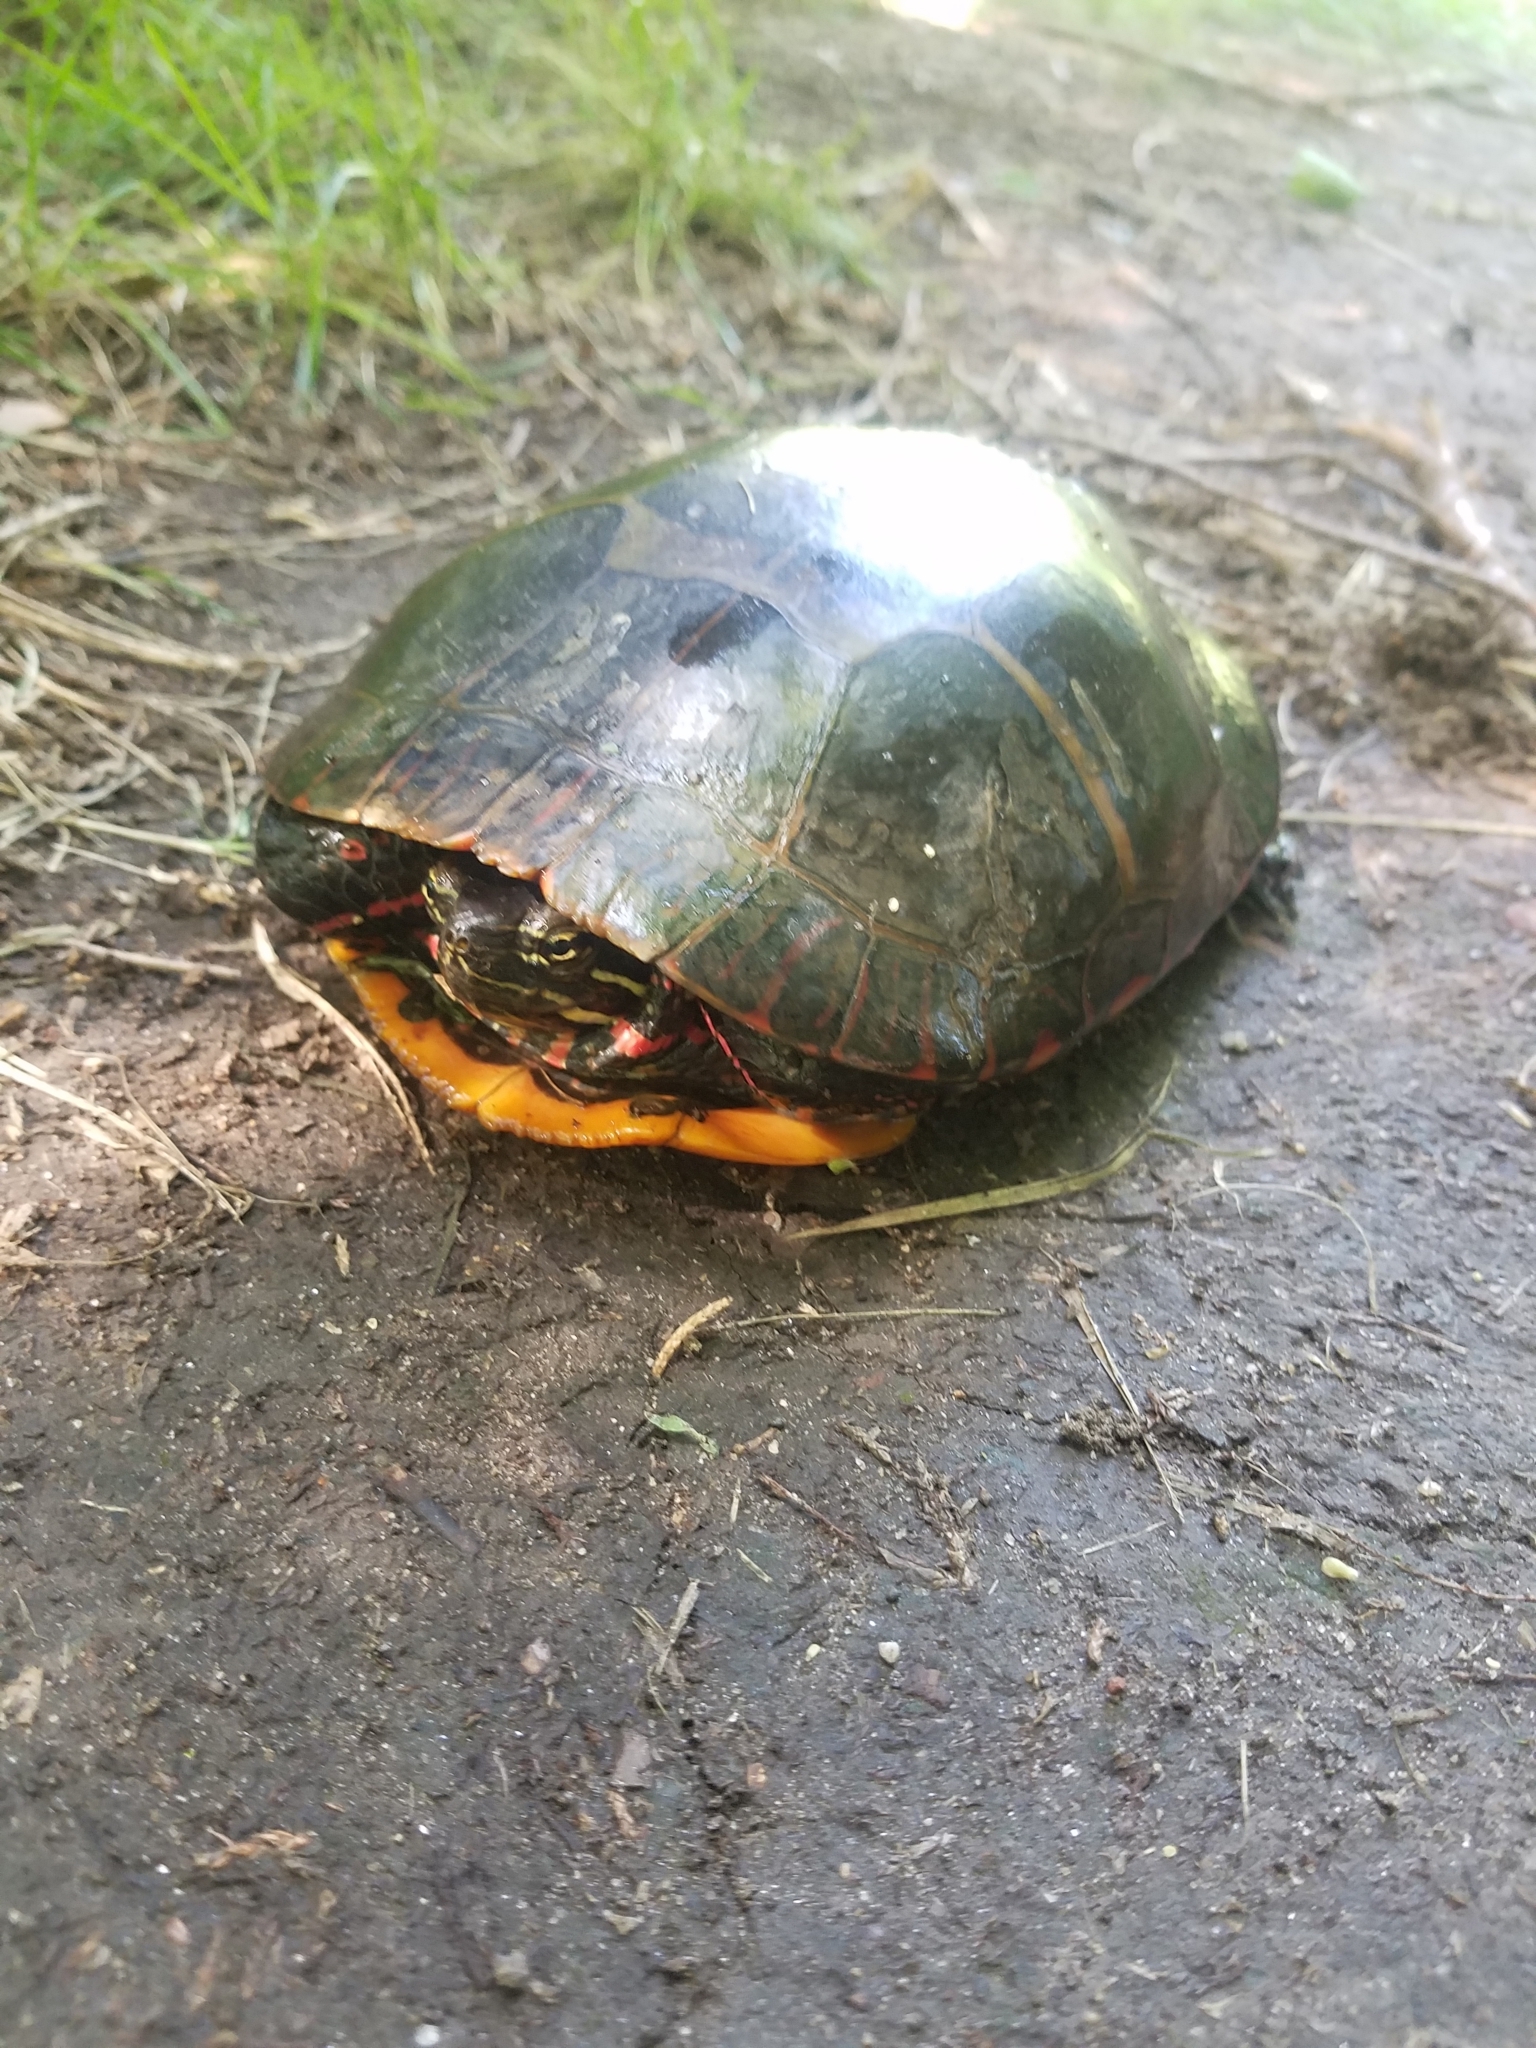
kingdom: Animalia
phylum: Chordata
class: Testudines
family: Emydidae
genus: Chrysemys
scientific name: Chrysemys picta
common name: Painted turtle
